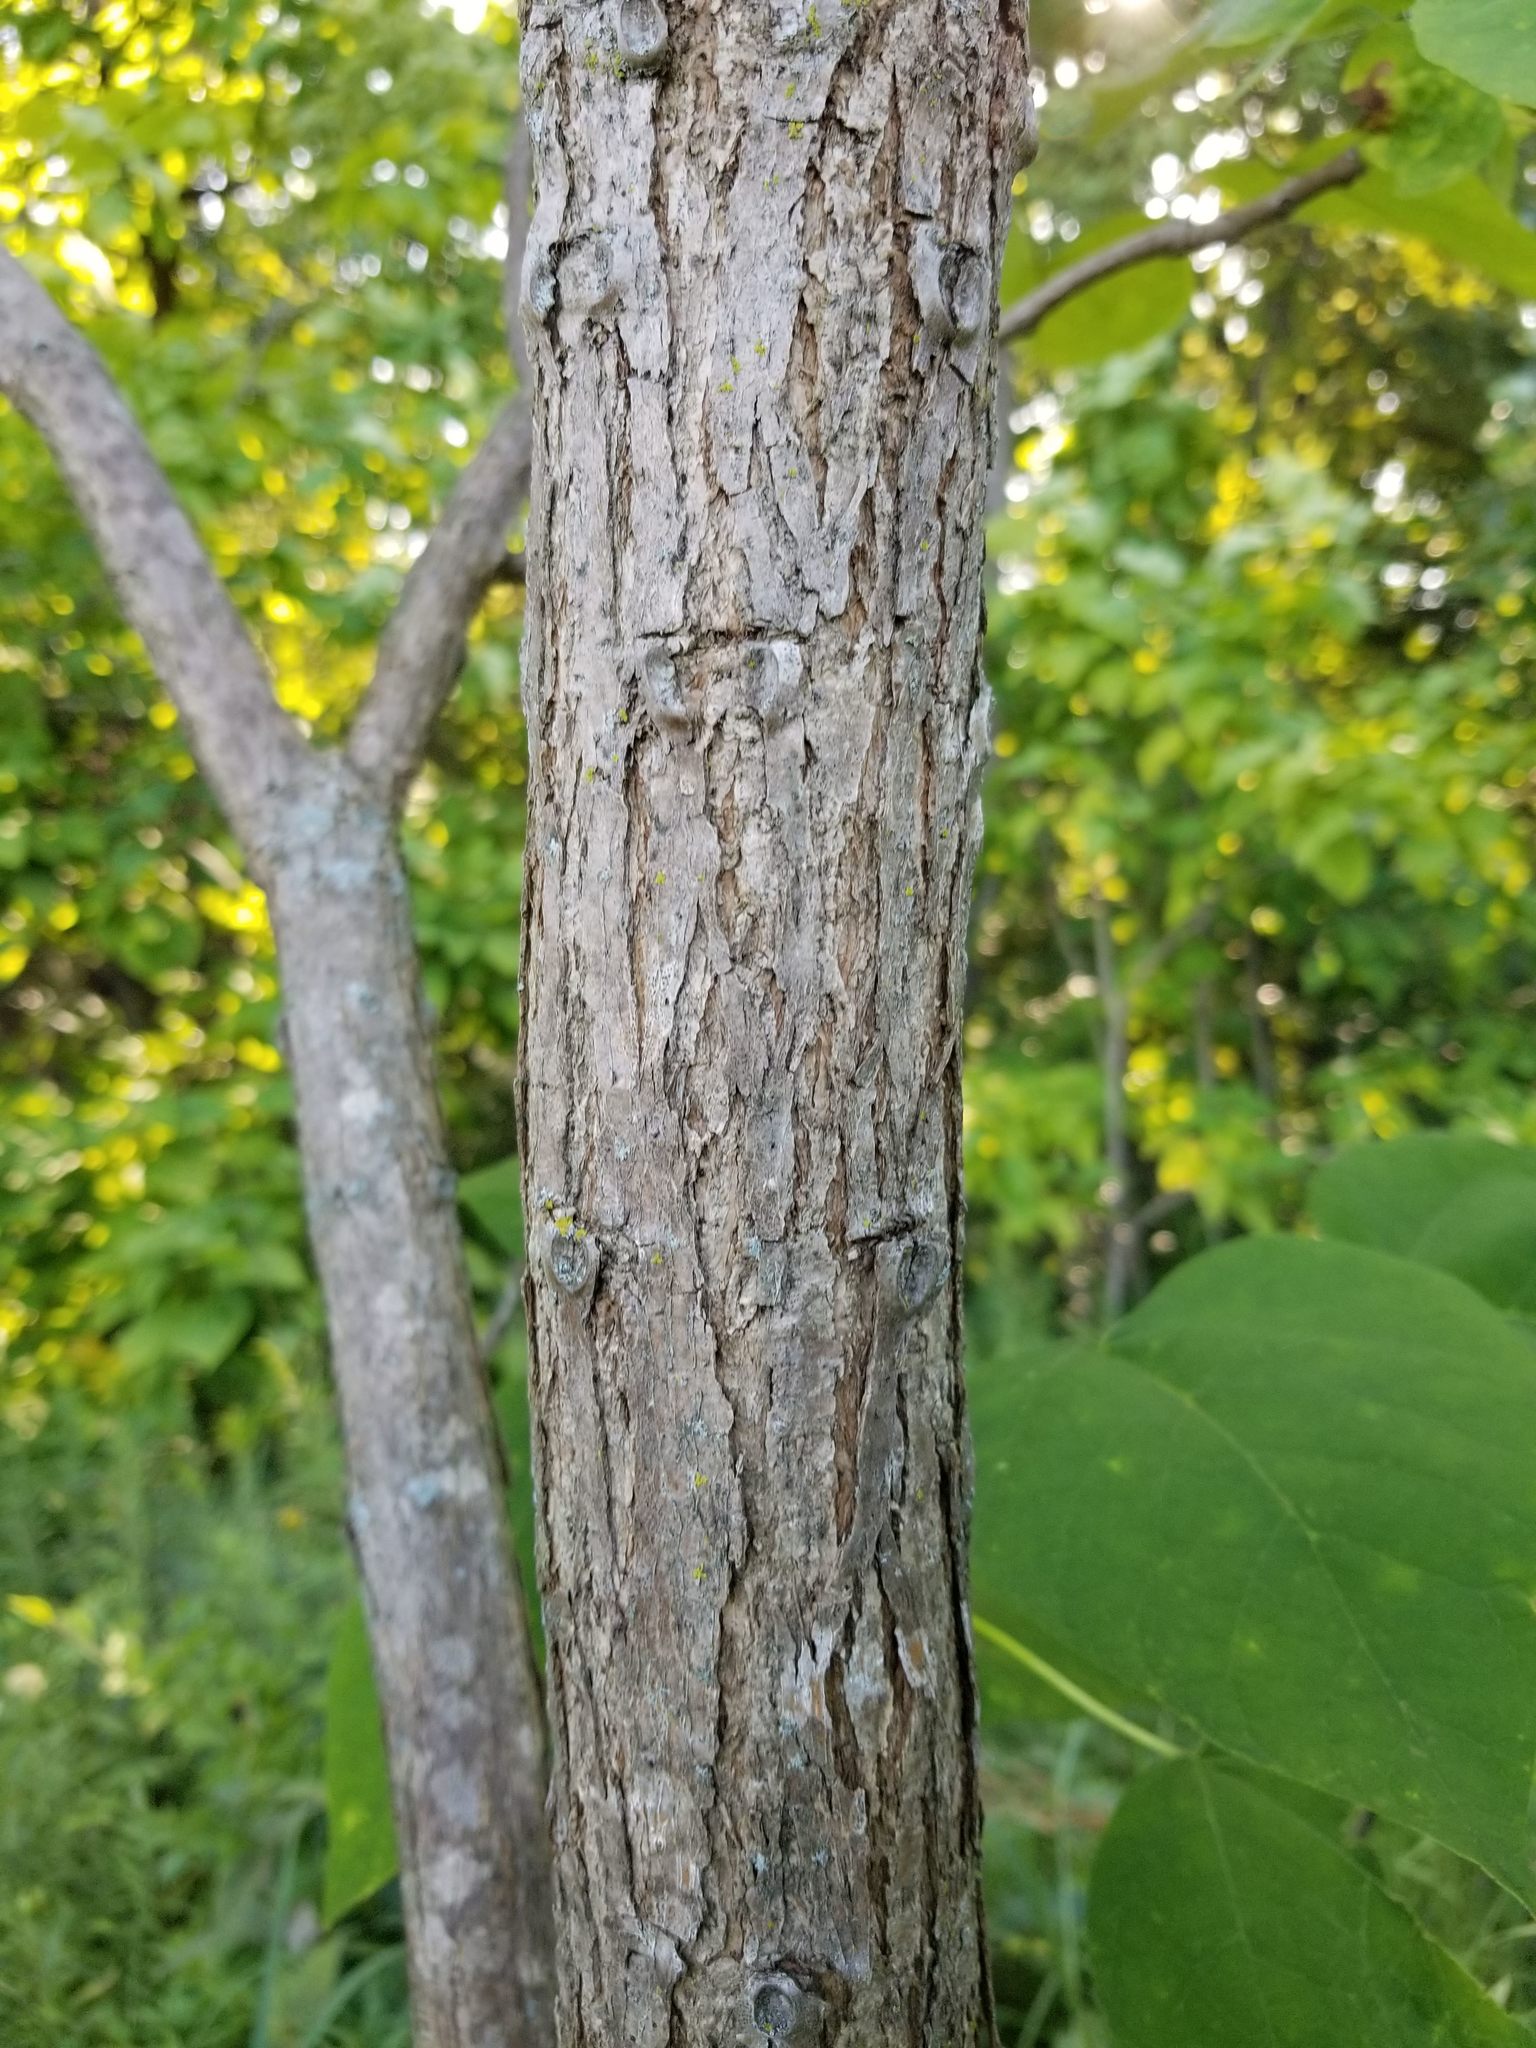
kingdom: Plantae
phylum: Tracheophyta
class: Magnoliopsida
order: Lamiales
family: Bignoniaceae
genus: Catalpa
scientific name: Catalpa speciosa
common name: Northern catalpa
